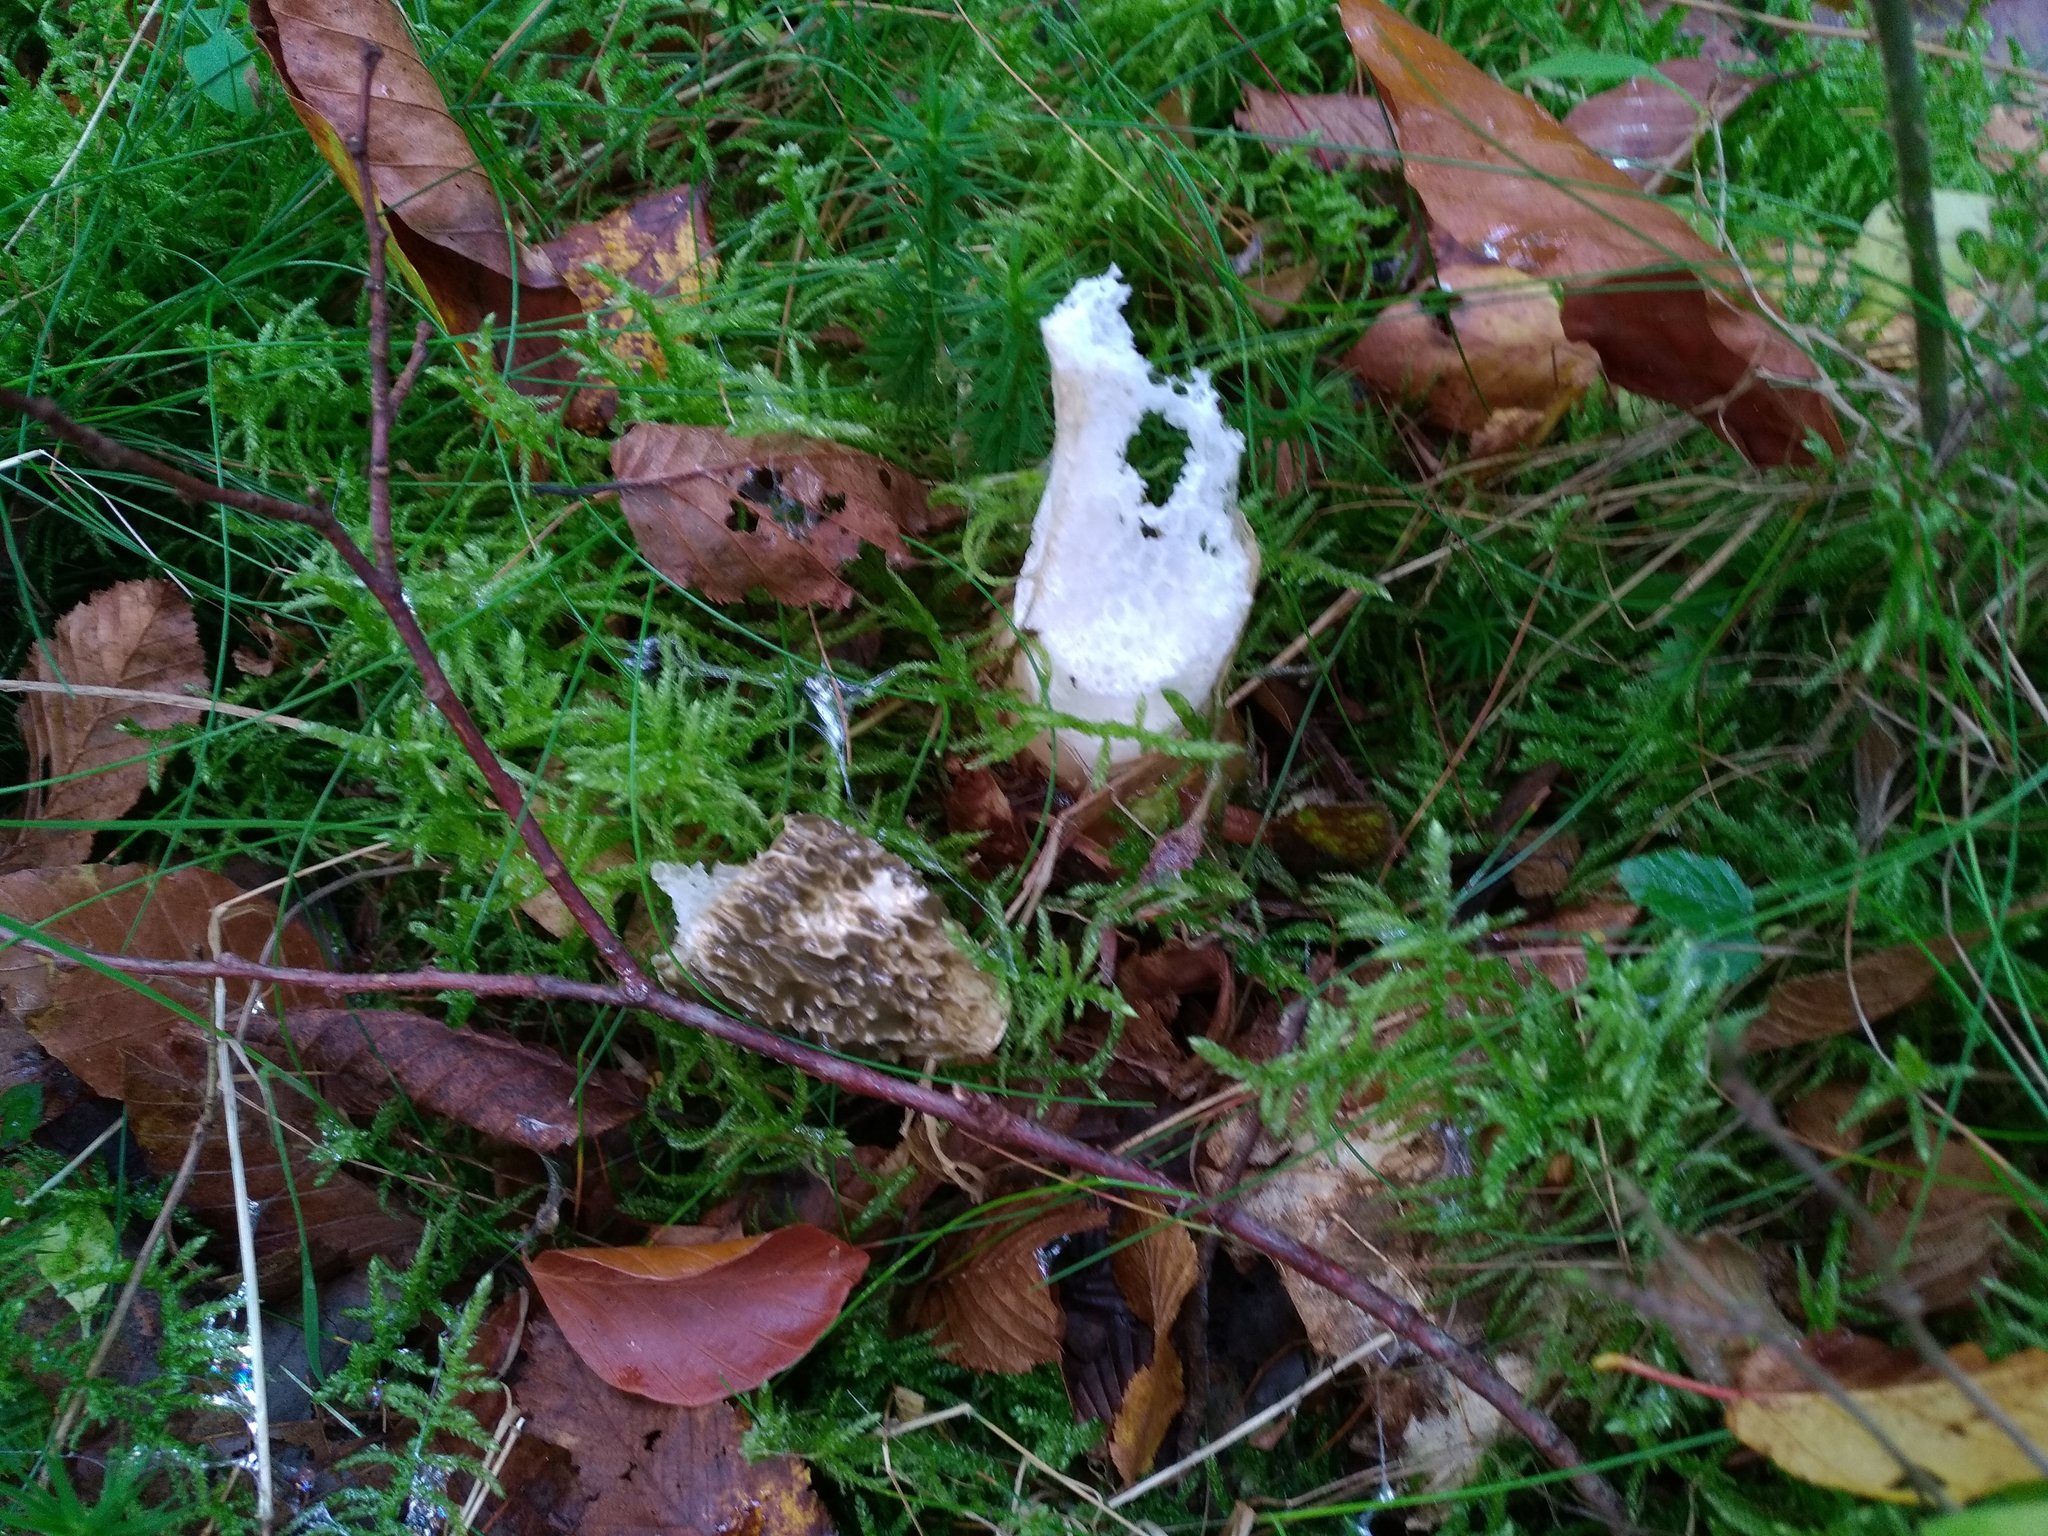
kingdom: Fungi
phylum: Basidiomycota
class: Agaricomycetes
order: Phallales
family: Phallaceae
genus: Phallus
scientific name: Phallus impudicus
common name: Common stinkhorn
